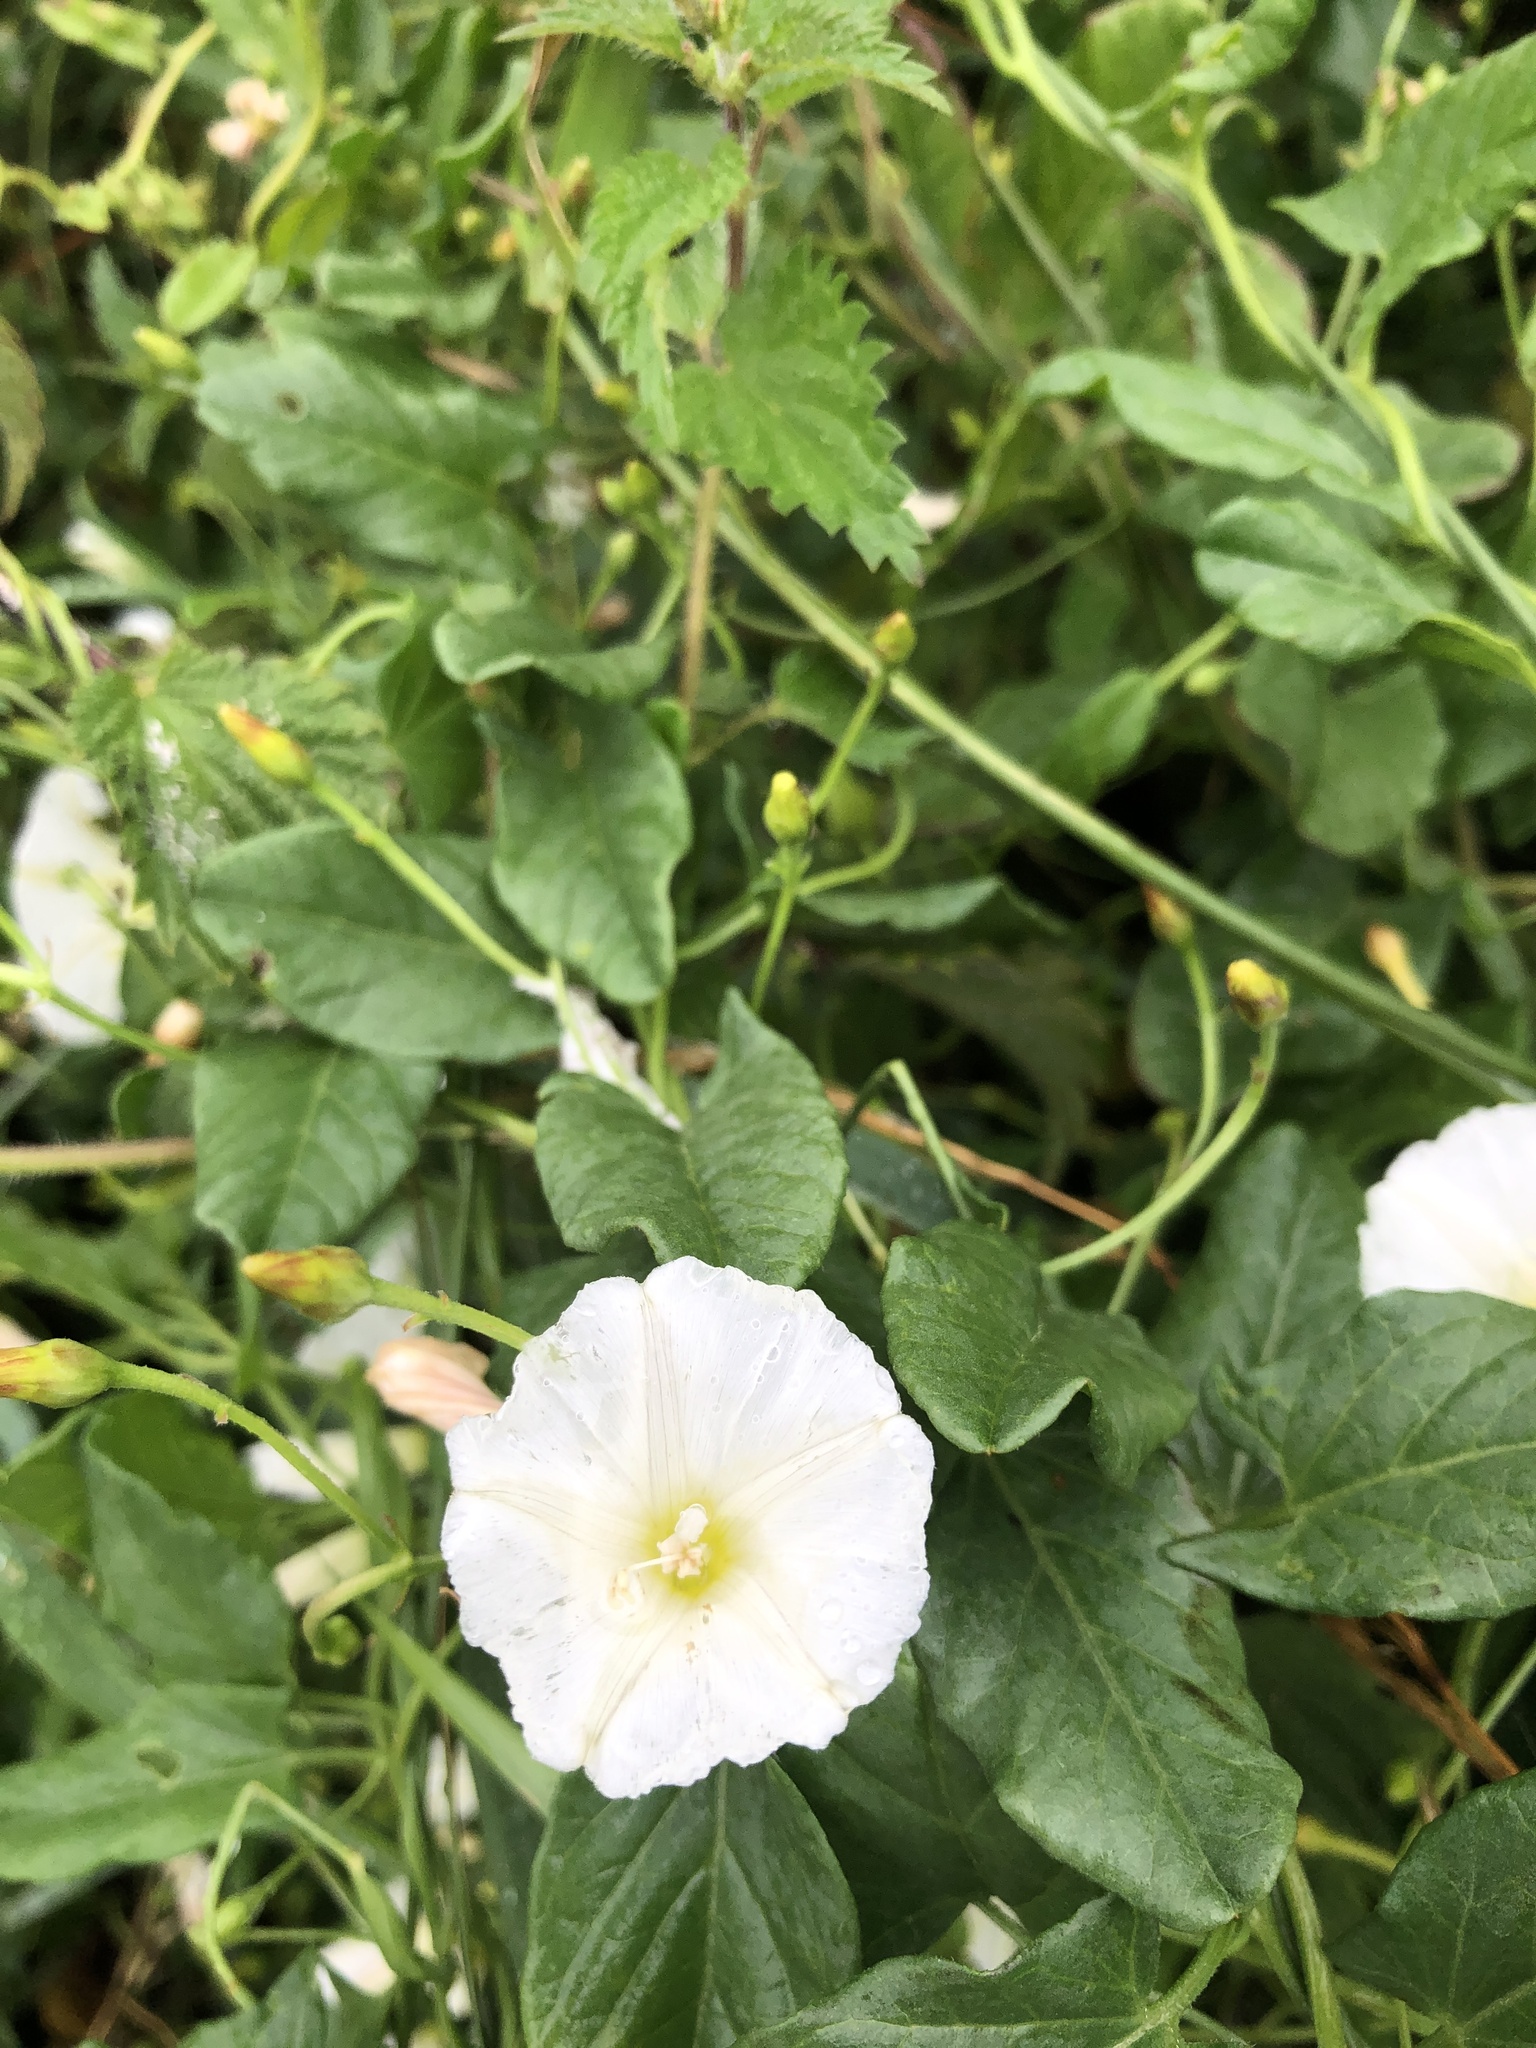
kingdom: Plantae
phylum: Tracheophyta
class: Magnoliopsida
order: Solanales
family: Convolvulaceae
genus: Convolvulus
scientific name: Convolvulus arvensis
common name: Field bindweed
